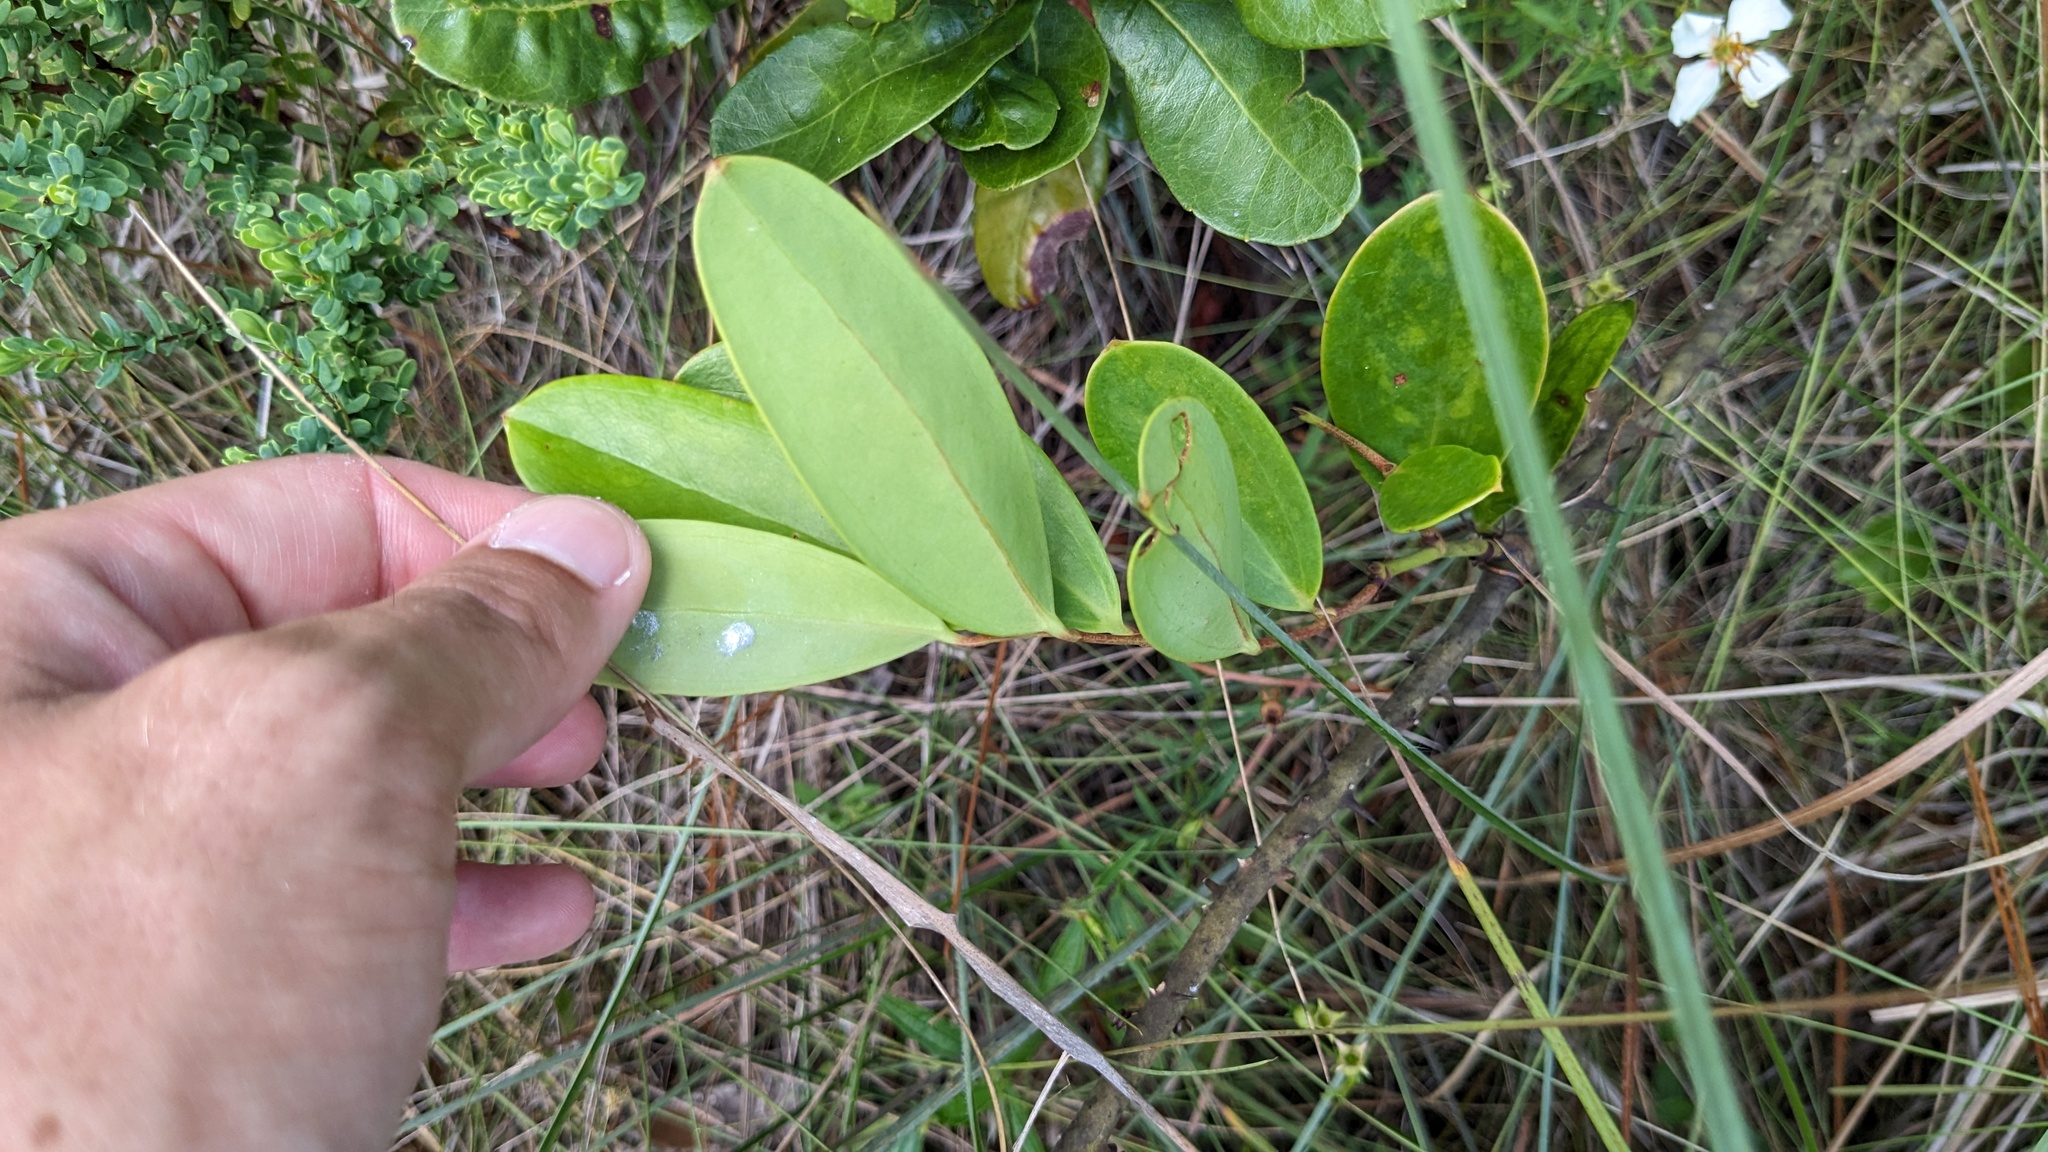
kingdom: Plantae
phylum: Tracheophyta
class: Liliopsida
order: Liliales
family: Smilacaceae
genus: Smilax
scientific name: Smilax laurifolia
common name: Bamboovine
